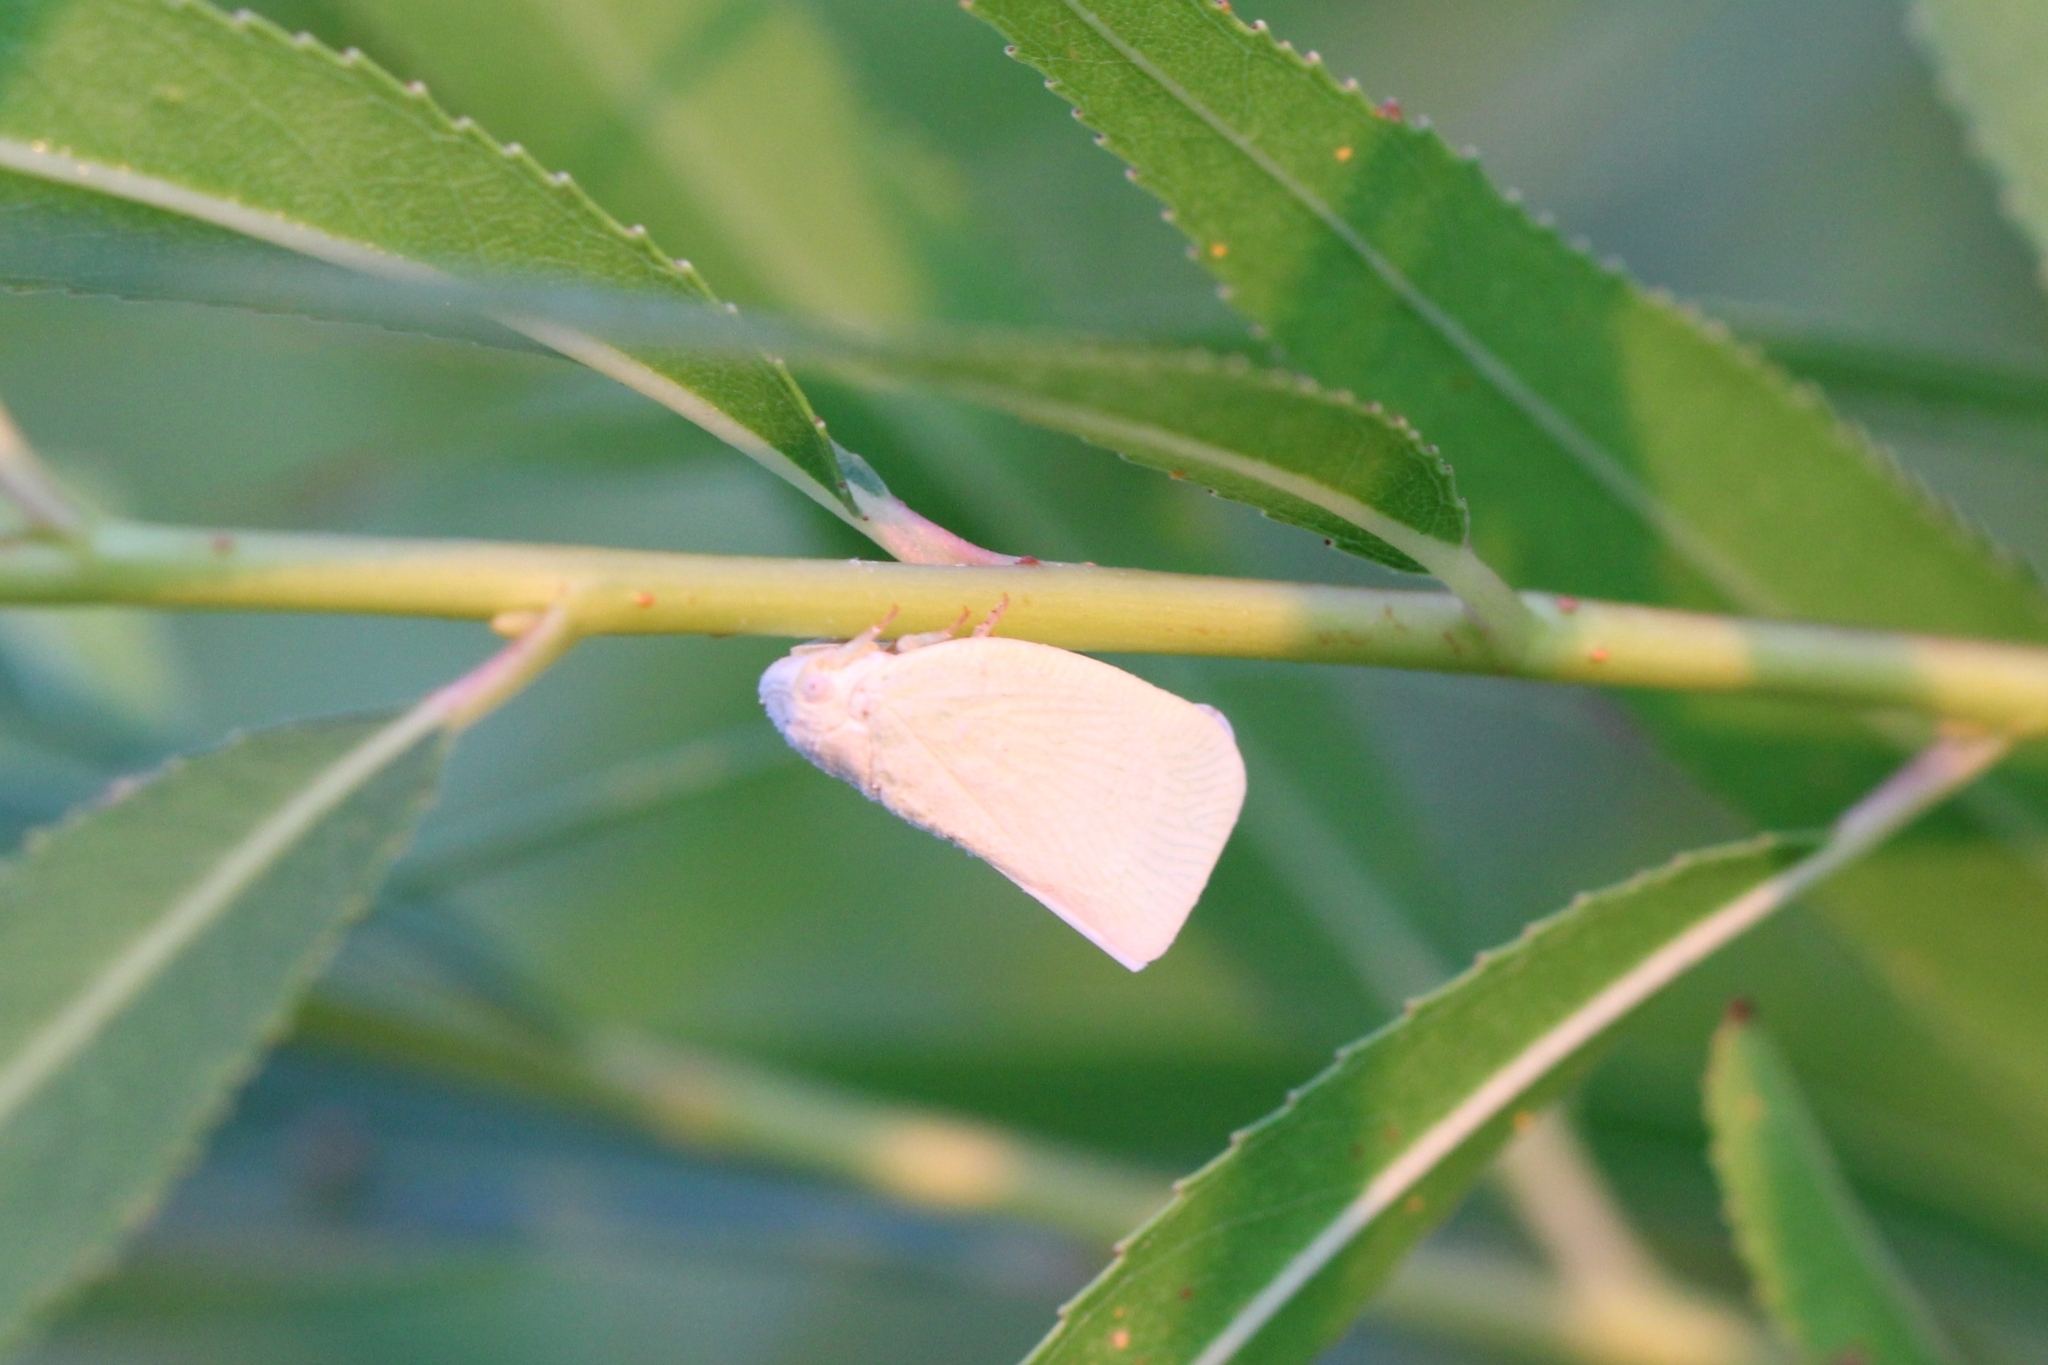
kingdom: Animalia
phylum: Arthropoda
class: Insecta
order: Hemiptera
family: Flatidae
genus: Flatormenis
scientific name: Flatormenis proxima
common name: Northern flatid planthopper
